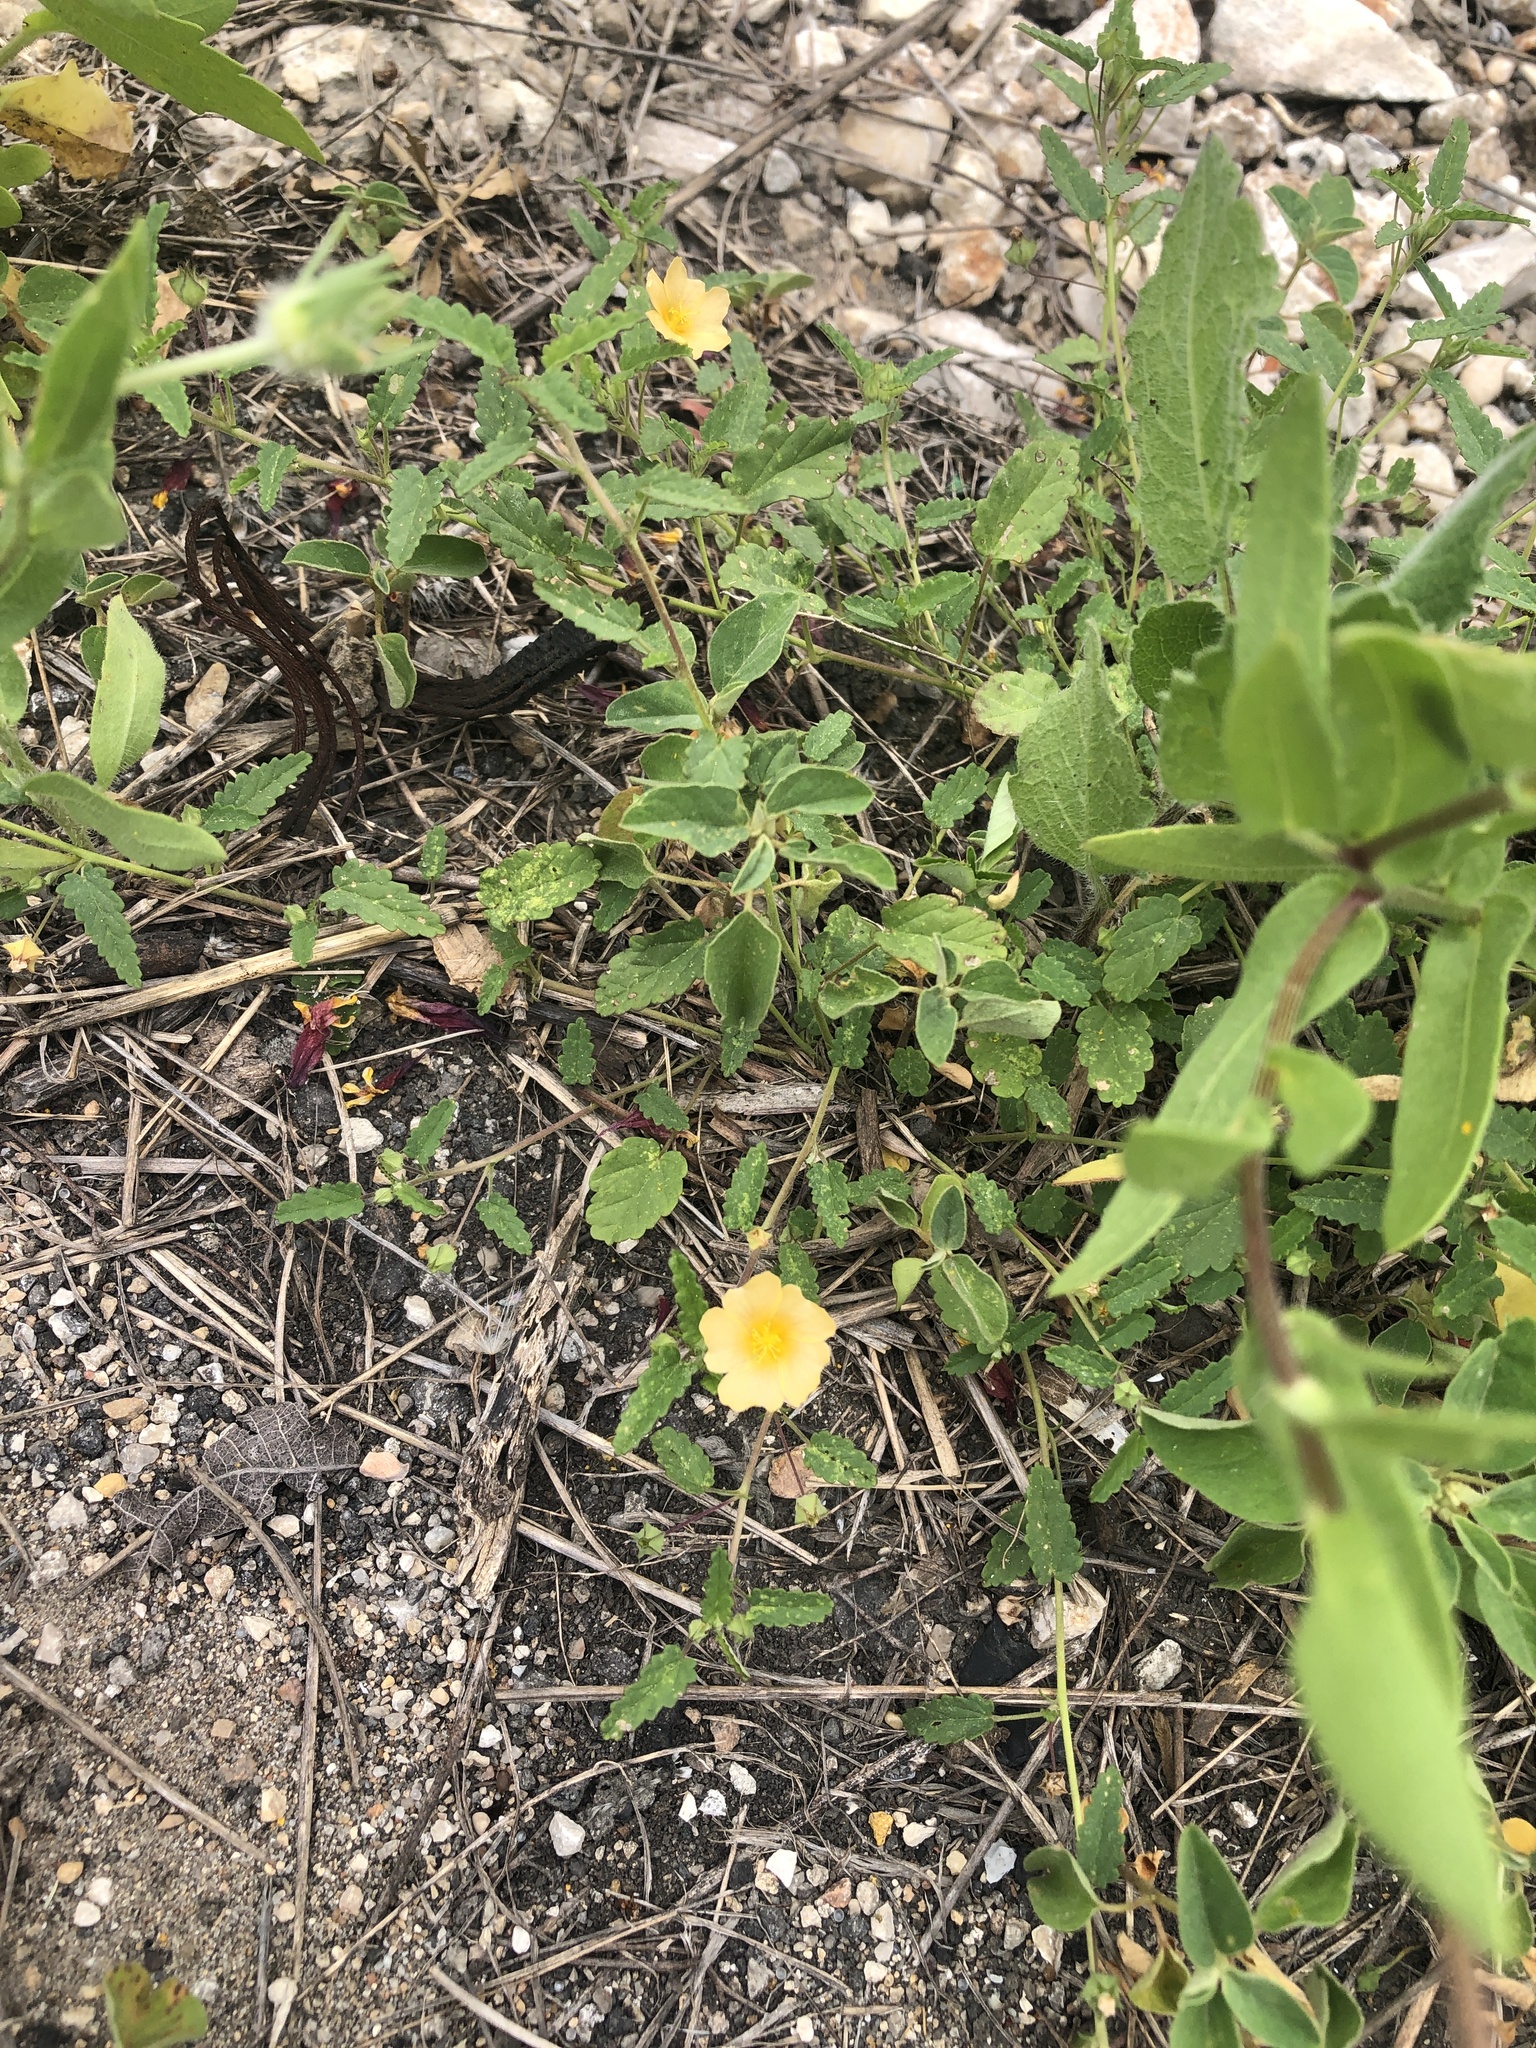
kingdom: Plantae
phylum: Tracheophyta
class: Magnoliopsida
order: Malvales
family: Malvaceae
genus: Sida
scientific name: Sida abutilifolia
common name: Spreading fanpetals
